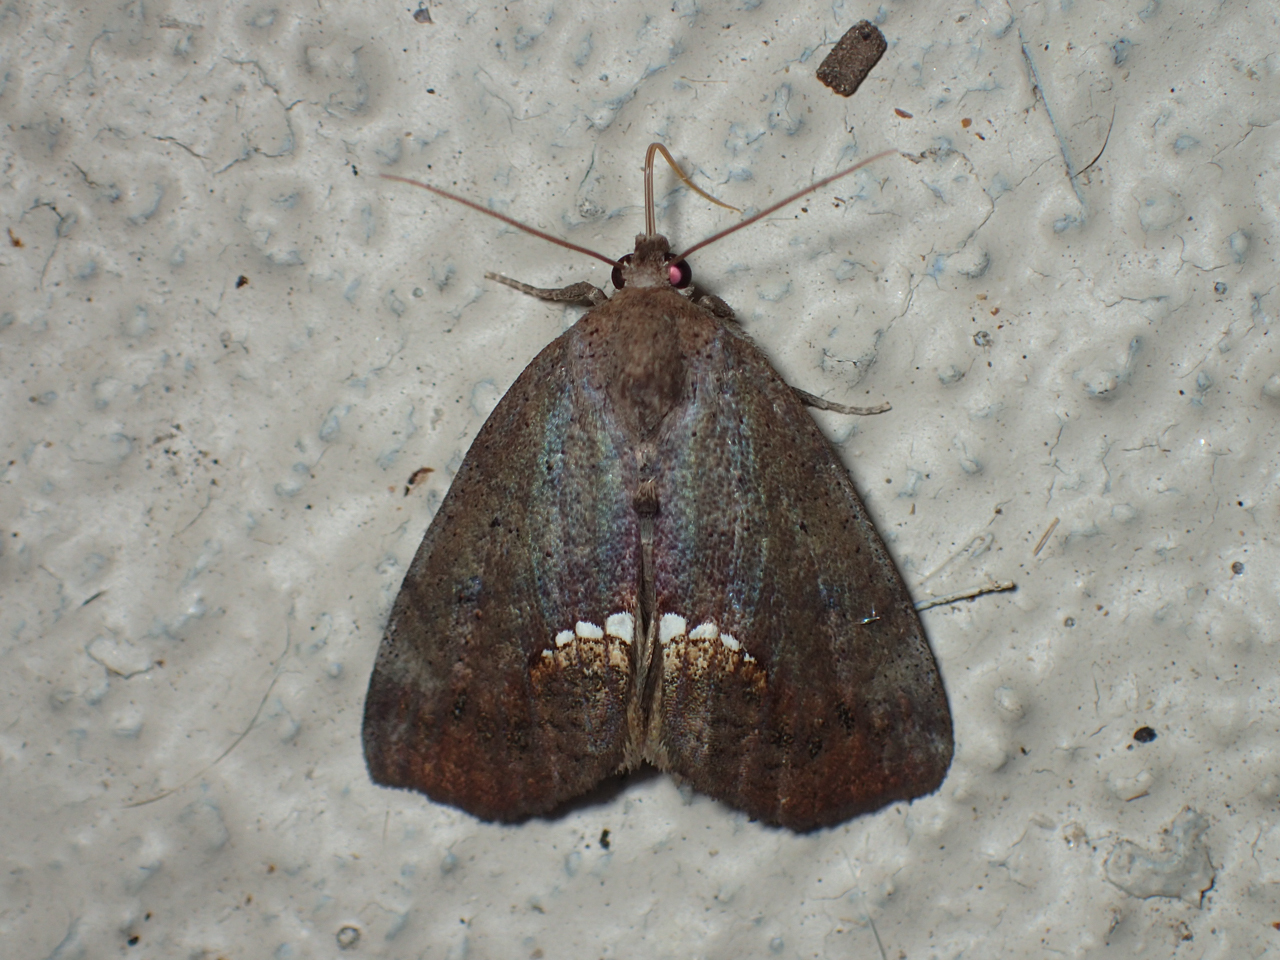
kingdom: Animalia
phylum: Arthropoda
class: Insecta
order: Lepidoptera
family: Erebidae
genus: Hypsoropha
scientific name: Hypsoropha hormos
